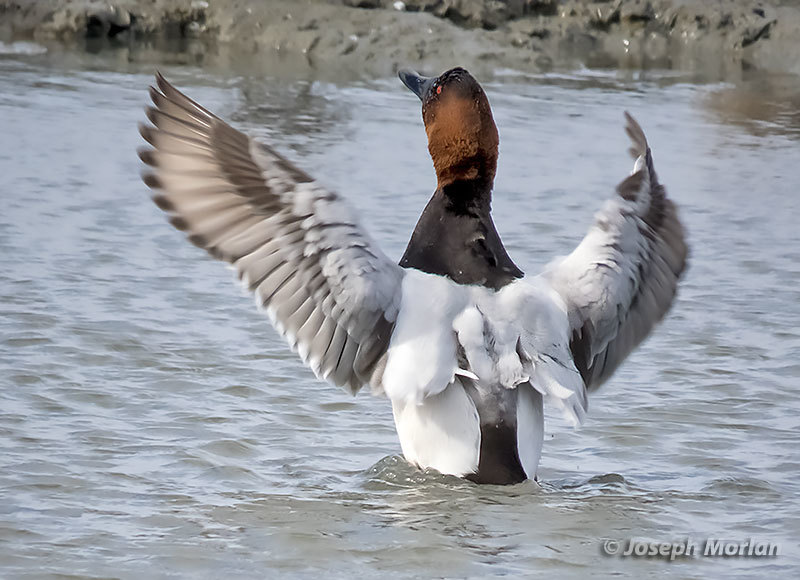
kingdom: Animalia
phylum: Chordata
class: Aves
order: Anseriformes
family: Anatidae
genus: Aythya
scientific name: Aythya valisineria
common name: Canvasback
